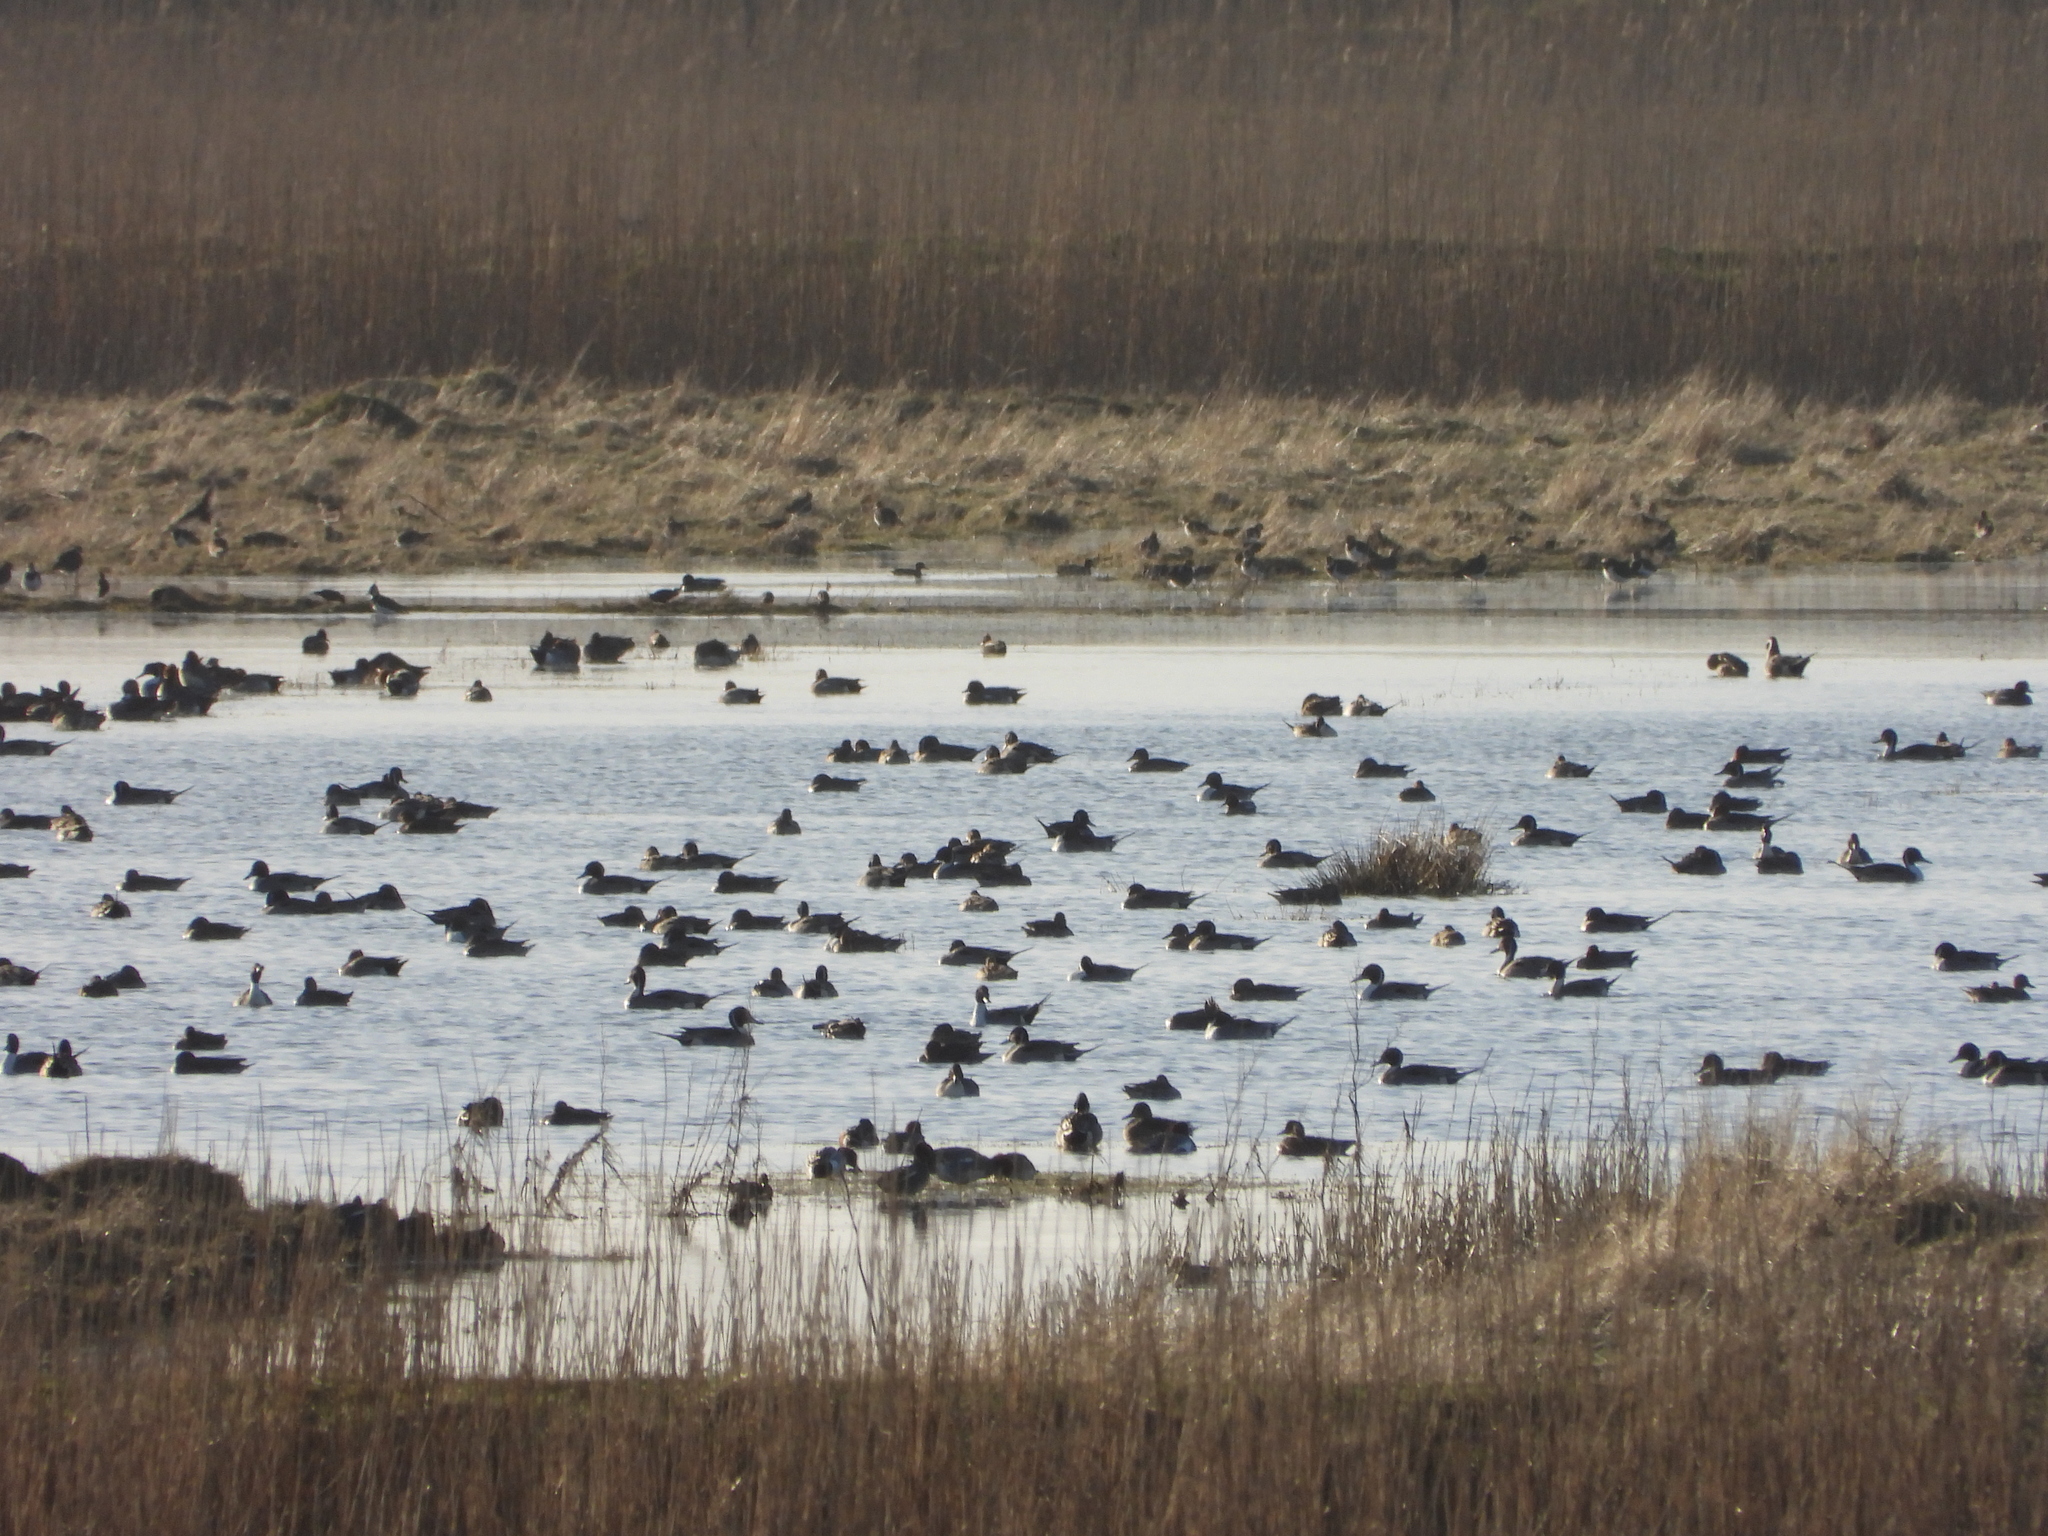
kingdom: Animalia
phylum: Chordata
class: Aves
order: Anseriformes
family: Anatidae
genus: Anas
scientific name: Anas acuta
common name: Northern pintail
